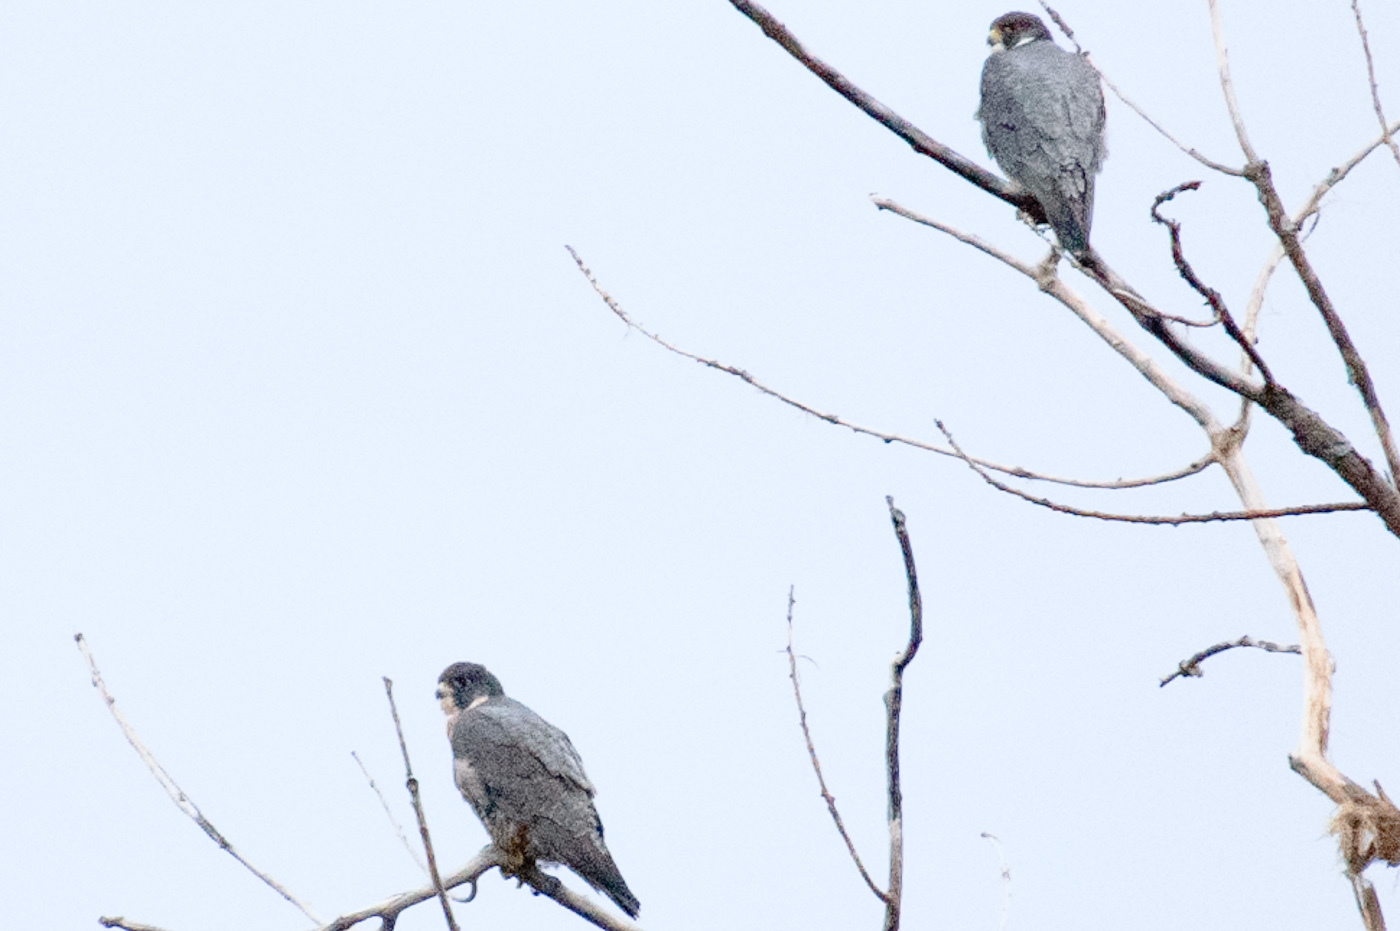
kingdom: Animalia
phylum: Chordata
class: Aves
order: Falconiformes
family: Falconidae
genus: Falco
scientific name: Falco peregrinus
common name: Peregrine falcon
